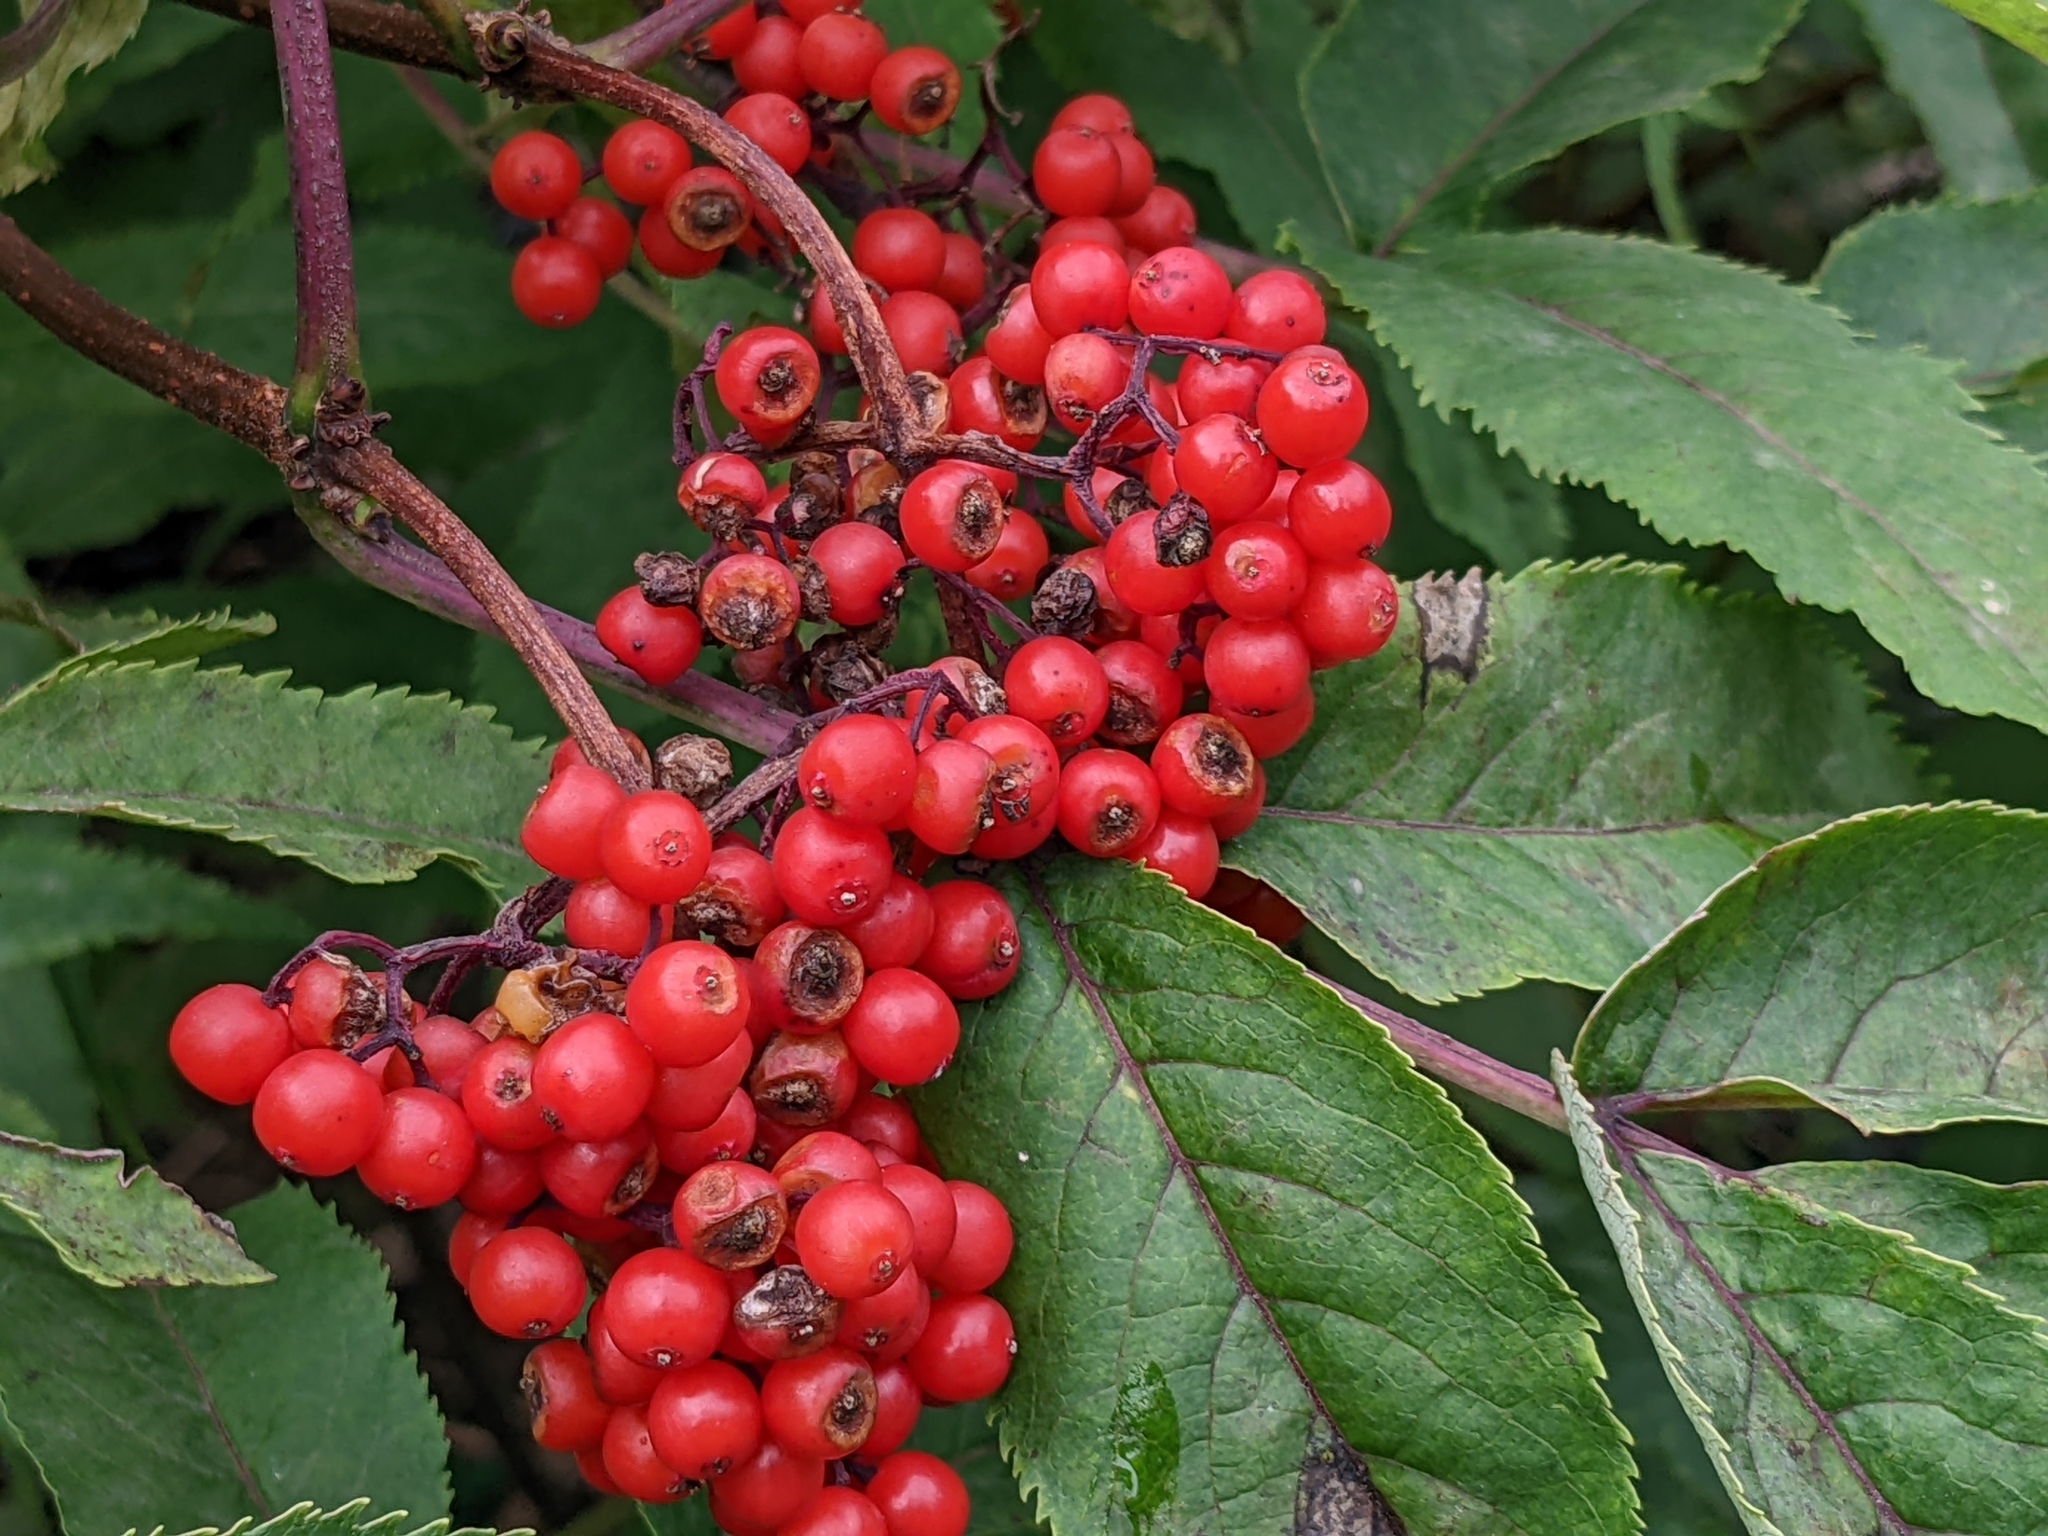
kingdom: Plantae
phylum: Tracheophyta
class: Magnoliopsida
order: Dipsacales
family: Viburnaceae
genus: Sambucus
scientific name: Sambucus racemosa
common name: Red-berried elder
